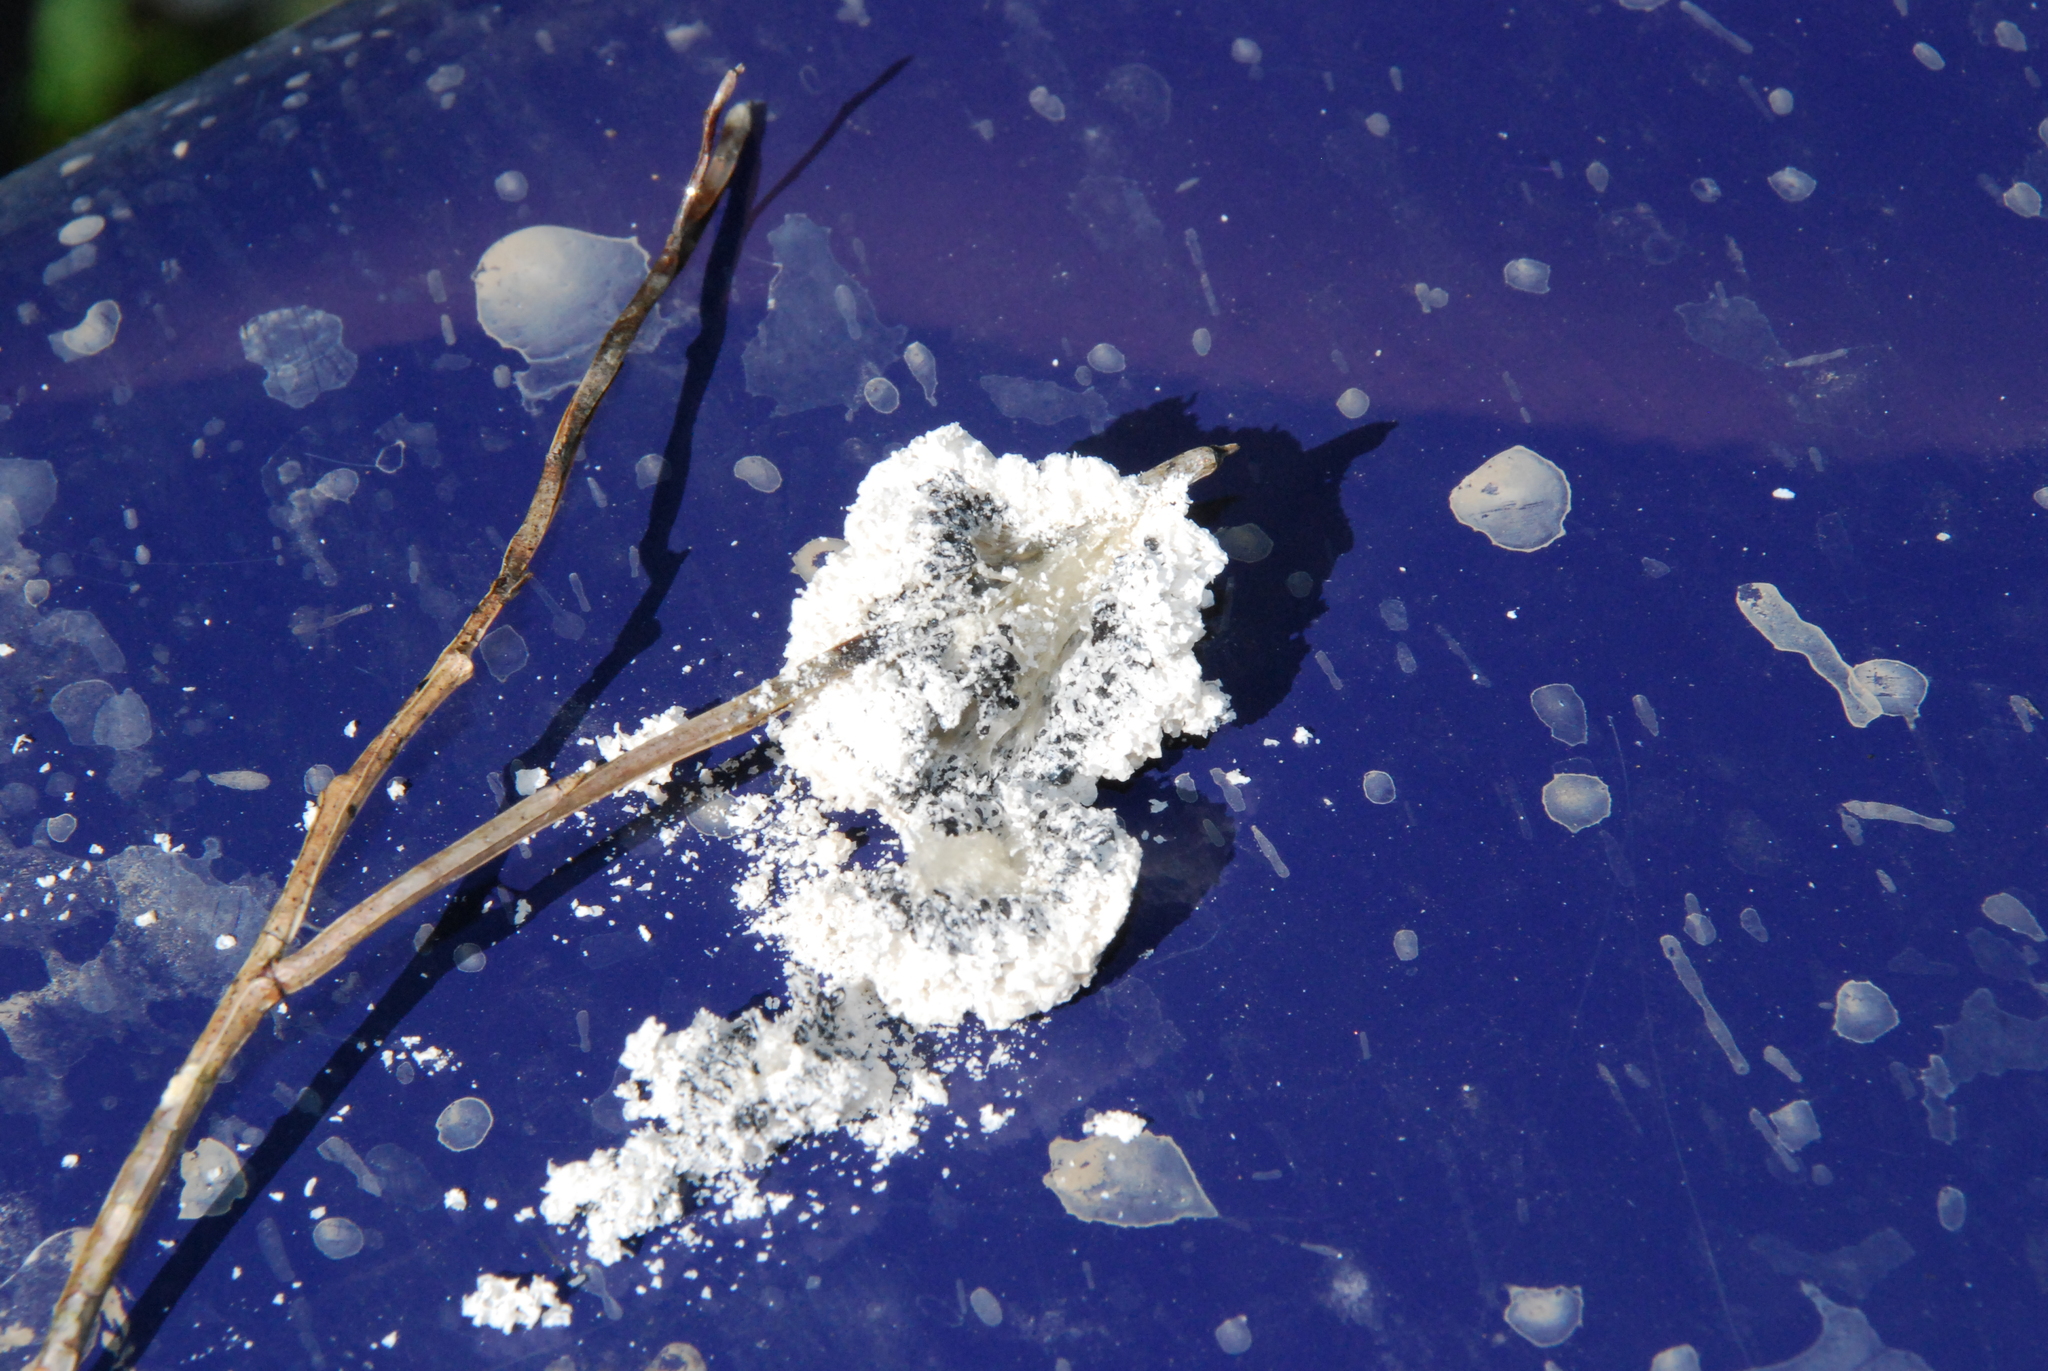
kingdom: Protozoa
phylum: Mycetozoa
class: Myxomycetes
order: Physarales
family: Physaraceae
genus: Didymium
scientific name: Didymium
